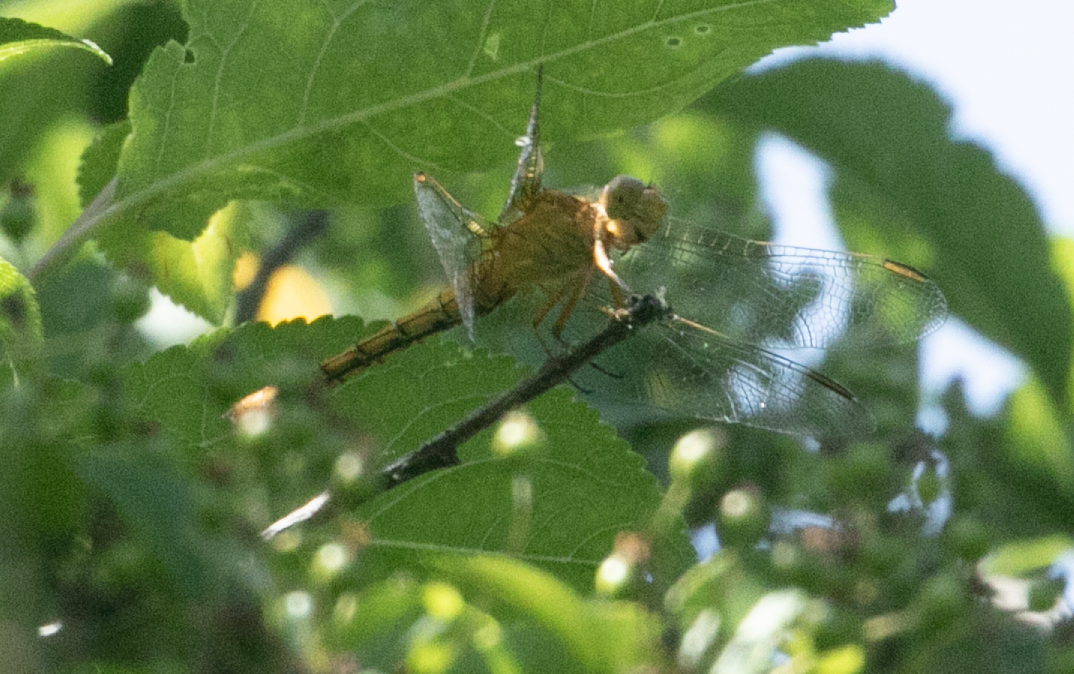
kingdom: Animalia
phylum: Arthropoda
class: Insecta
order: Odonata
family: Libellulidae
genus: Orthetrum
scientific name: Orthetrum coerulescens
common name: Keeled skimmer
